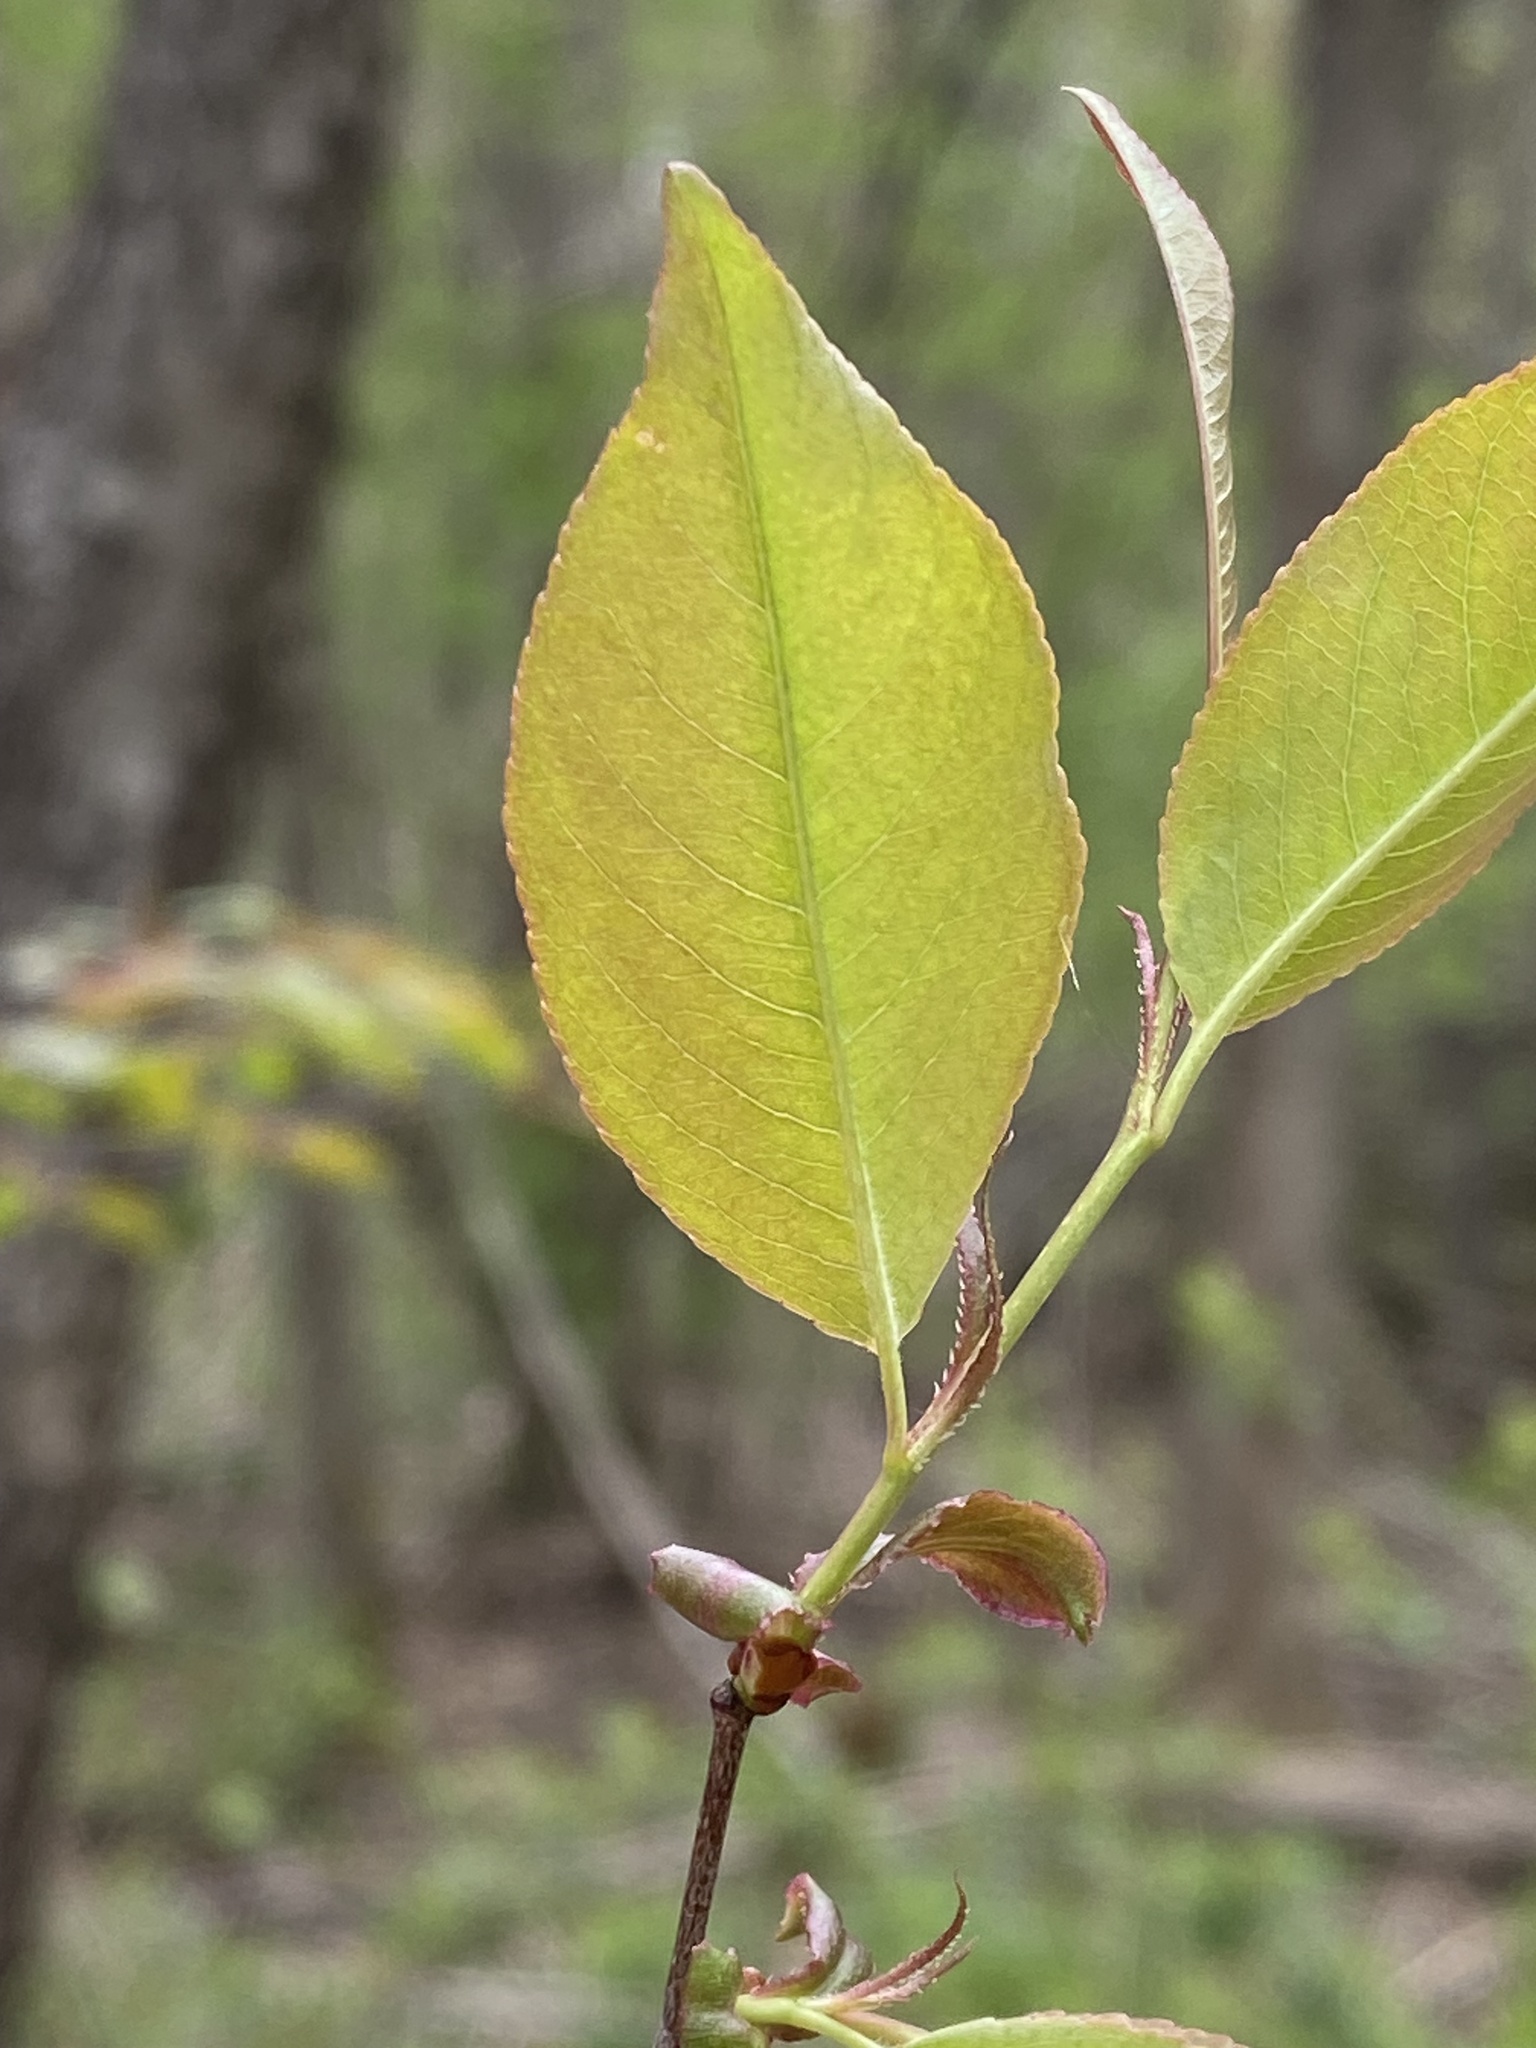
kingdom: Plantae
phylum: Tracheophyta
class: Magnoliopsida
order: Rosales
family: Rosaceae
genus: Amelanchier
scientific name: Amelanchier arborea
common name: Downy serviceberry
